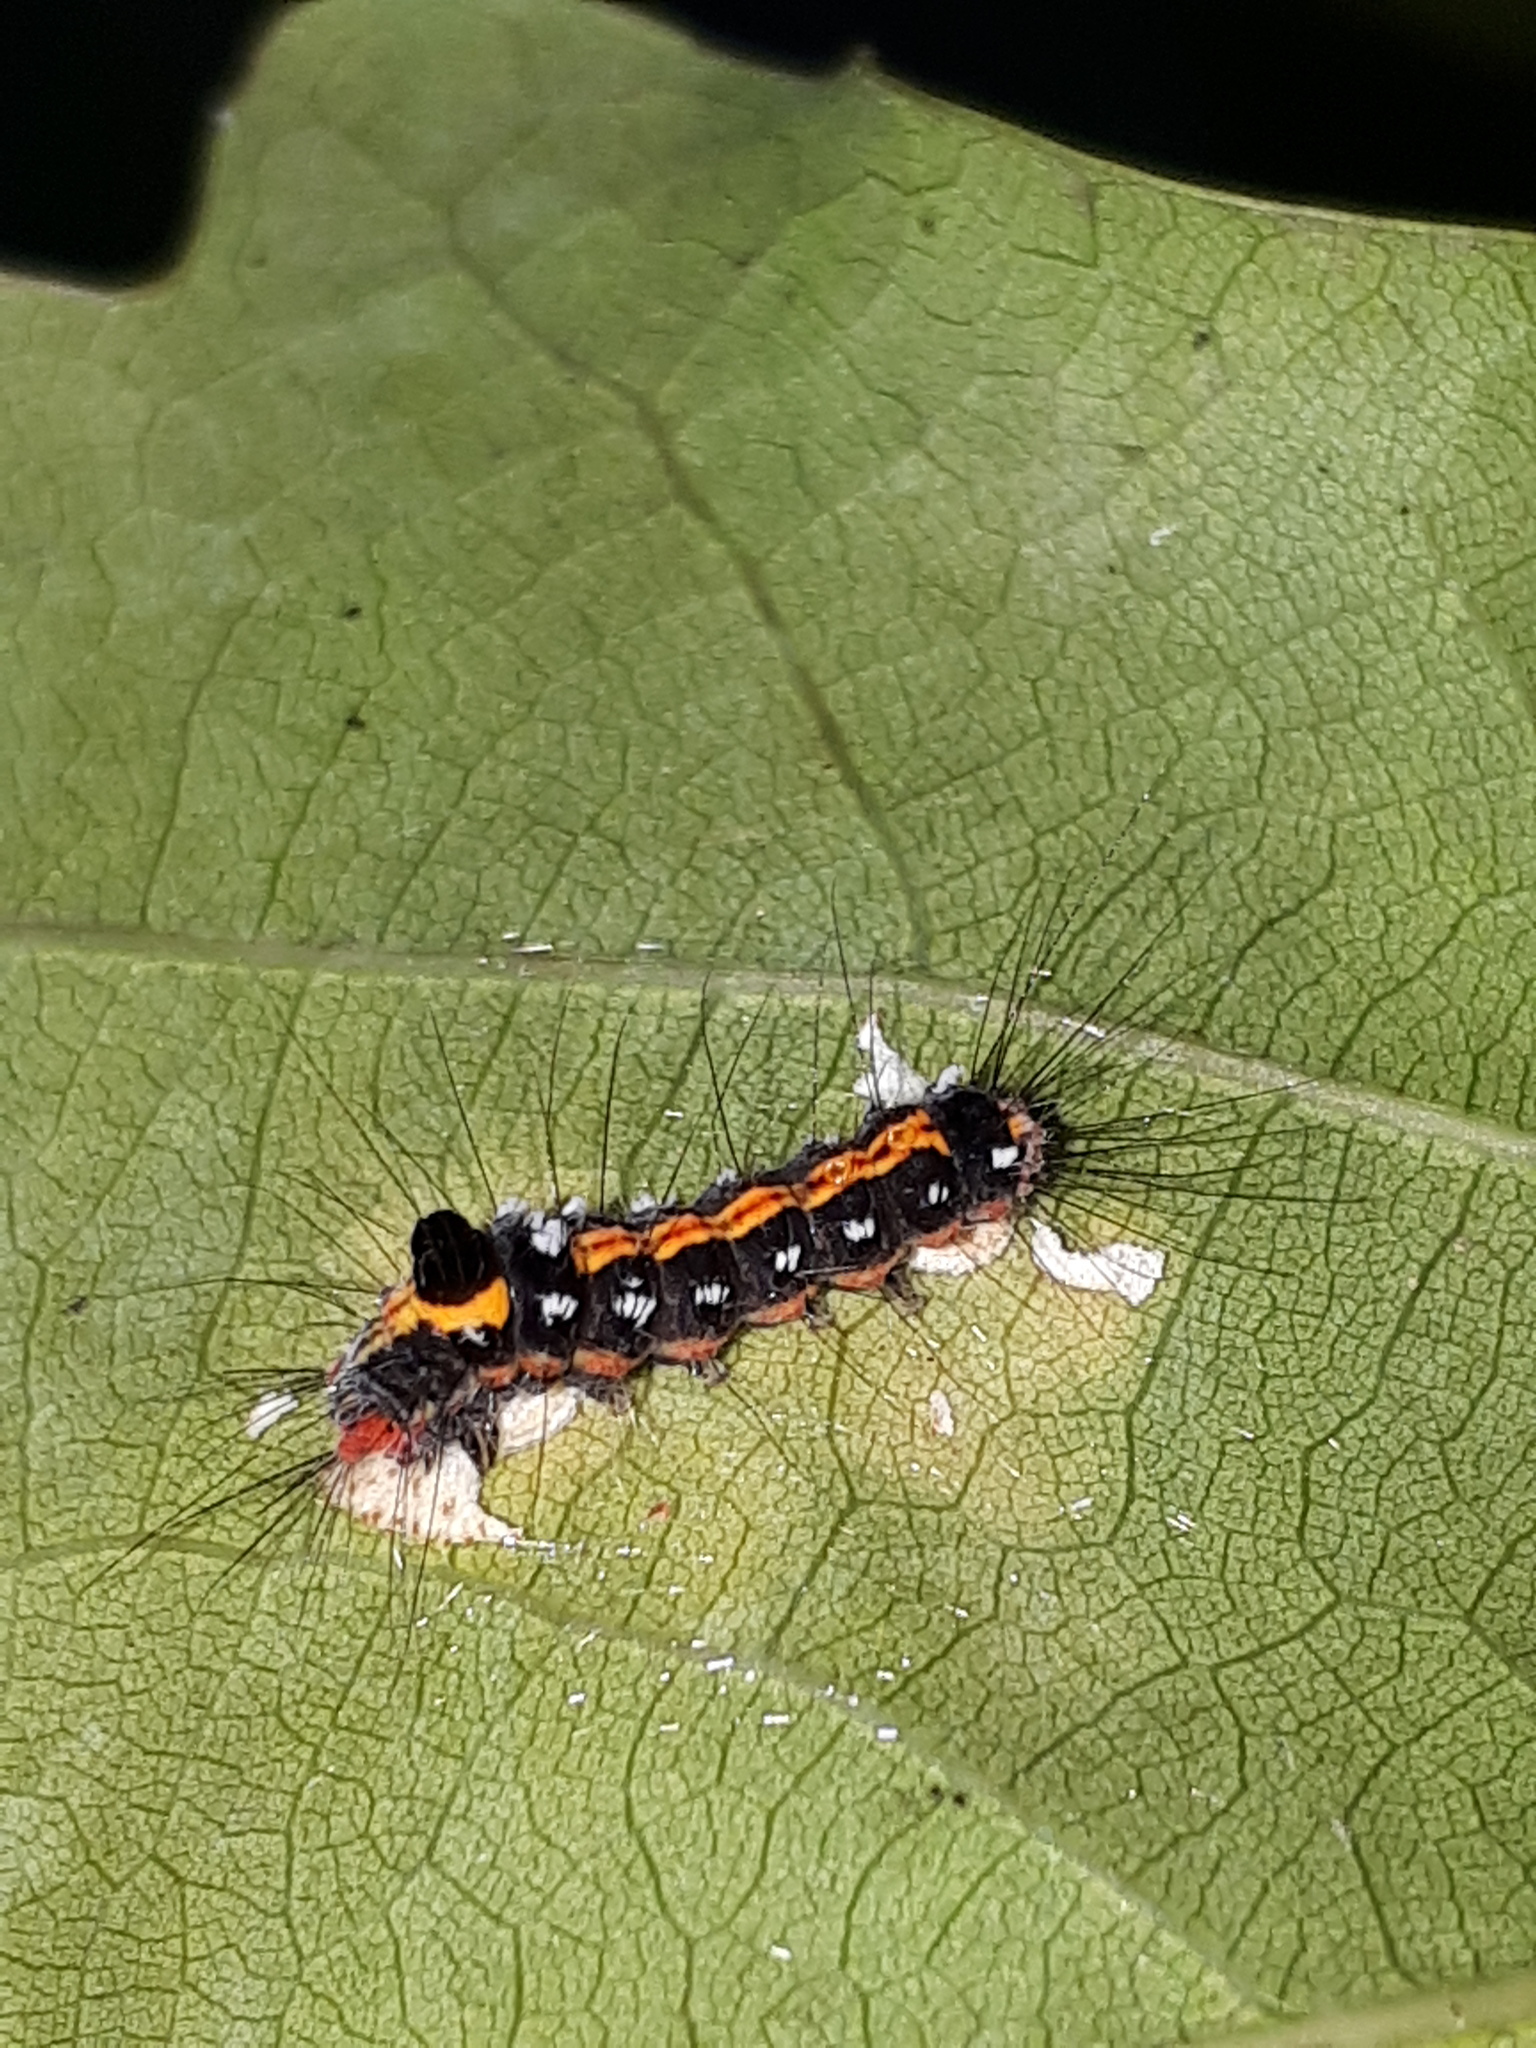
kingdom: Animalia
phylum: Arthropoda
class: Insecta
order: Lepidoptera
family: Erebidae
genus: Sphrageidus
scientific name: Sphrageidus similis
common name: Yellow-tail
